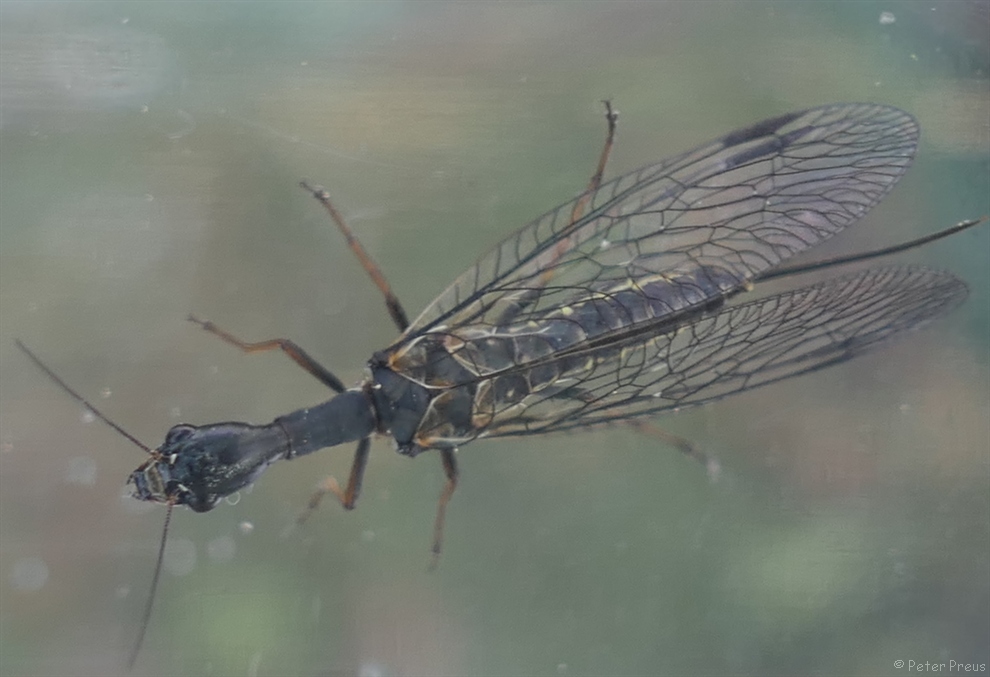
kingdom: Animalia
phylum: Arthropoda
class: Insecta
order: Raphidioptera
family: Raphidiidae
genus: Phaeostigma
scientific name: Phaeostigma notatum
